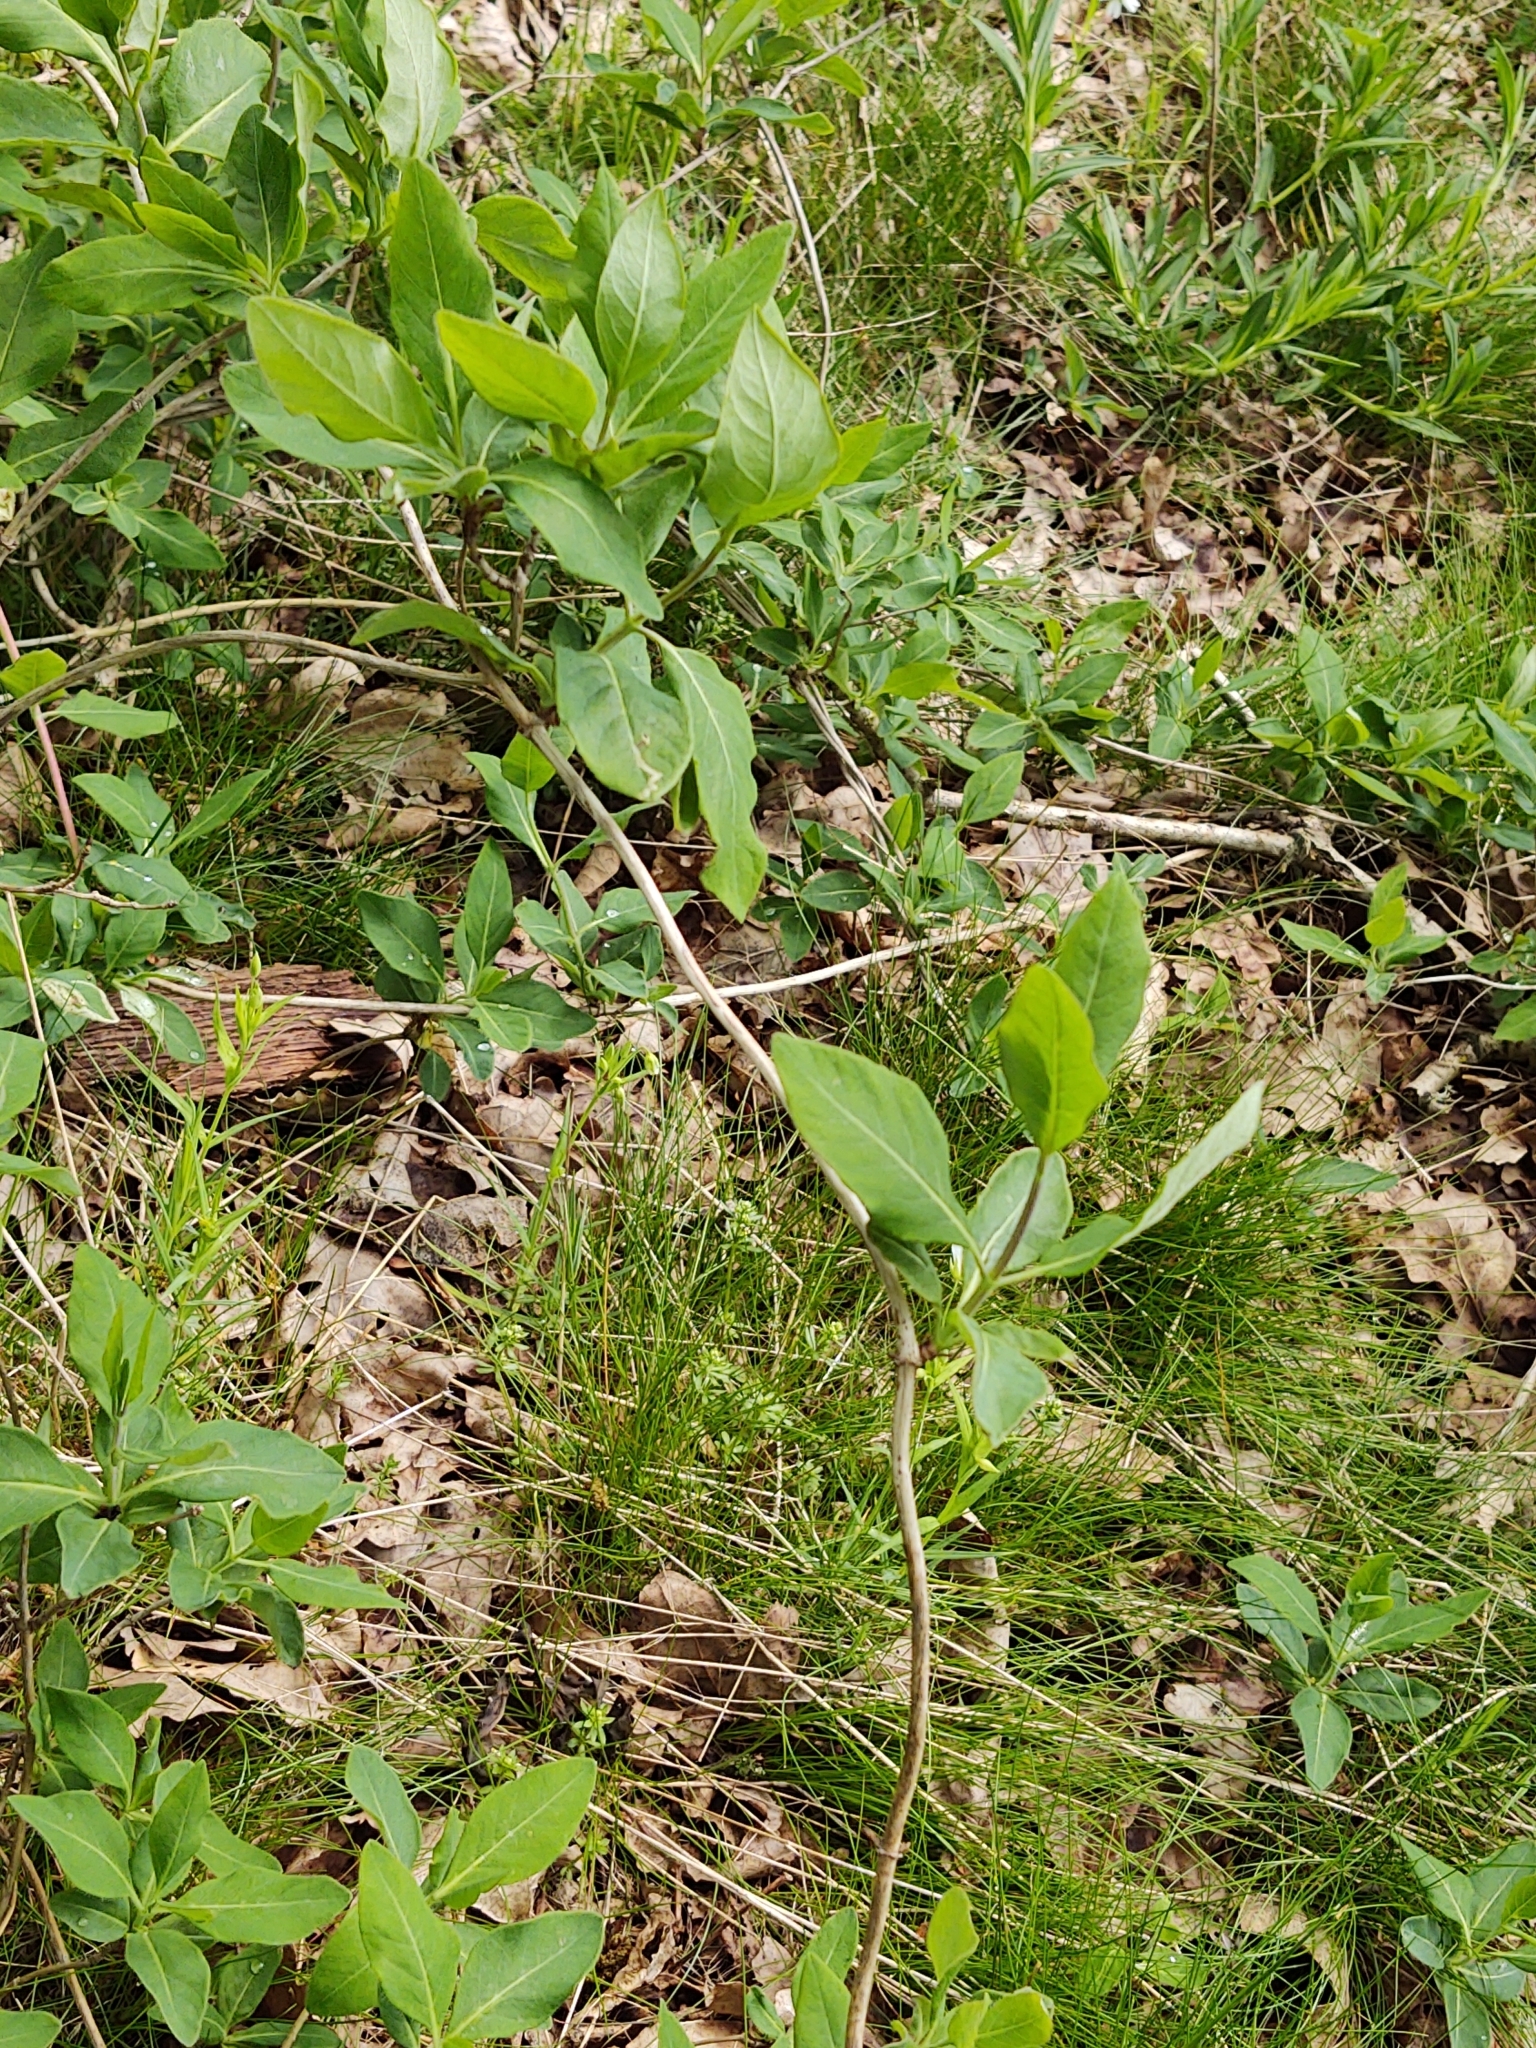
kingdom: Plantae
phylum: Tracheophyta
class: Magnoliopsida
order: Dipsacales
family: Caprifoliaceae
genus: Lonicera
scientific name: Lonicera periclymenum
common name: European honeysuckle
